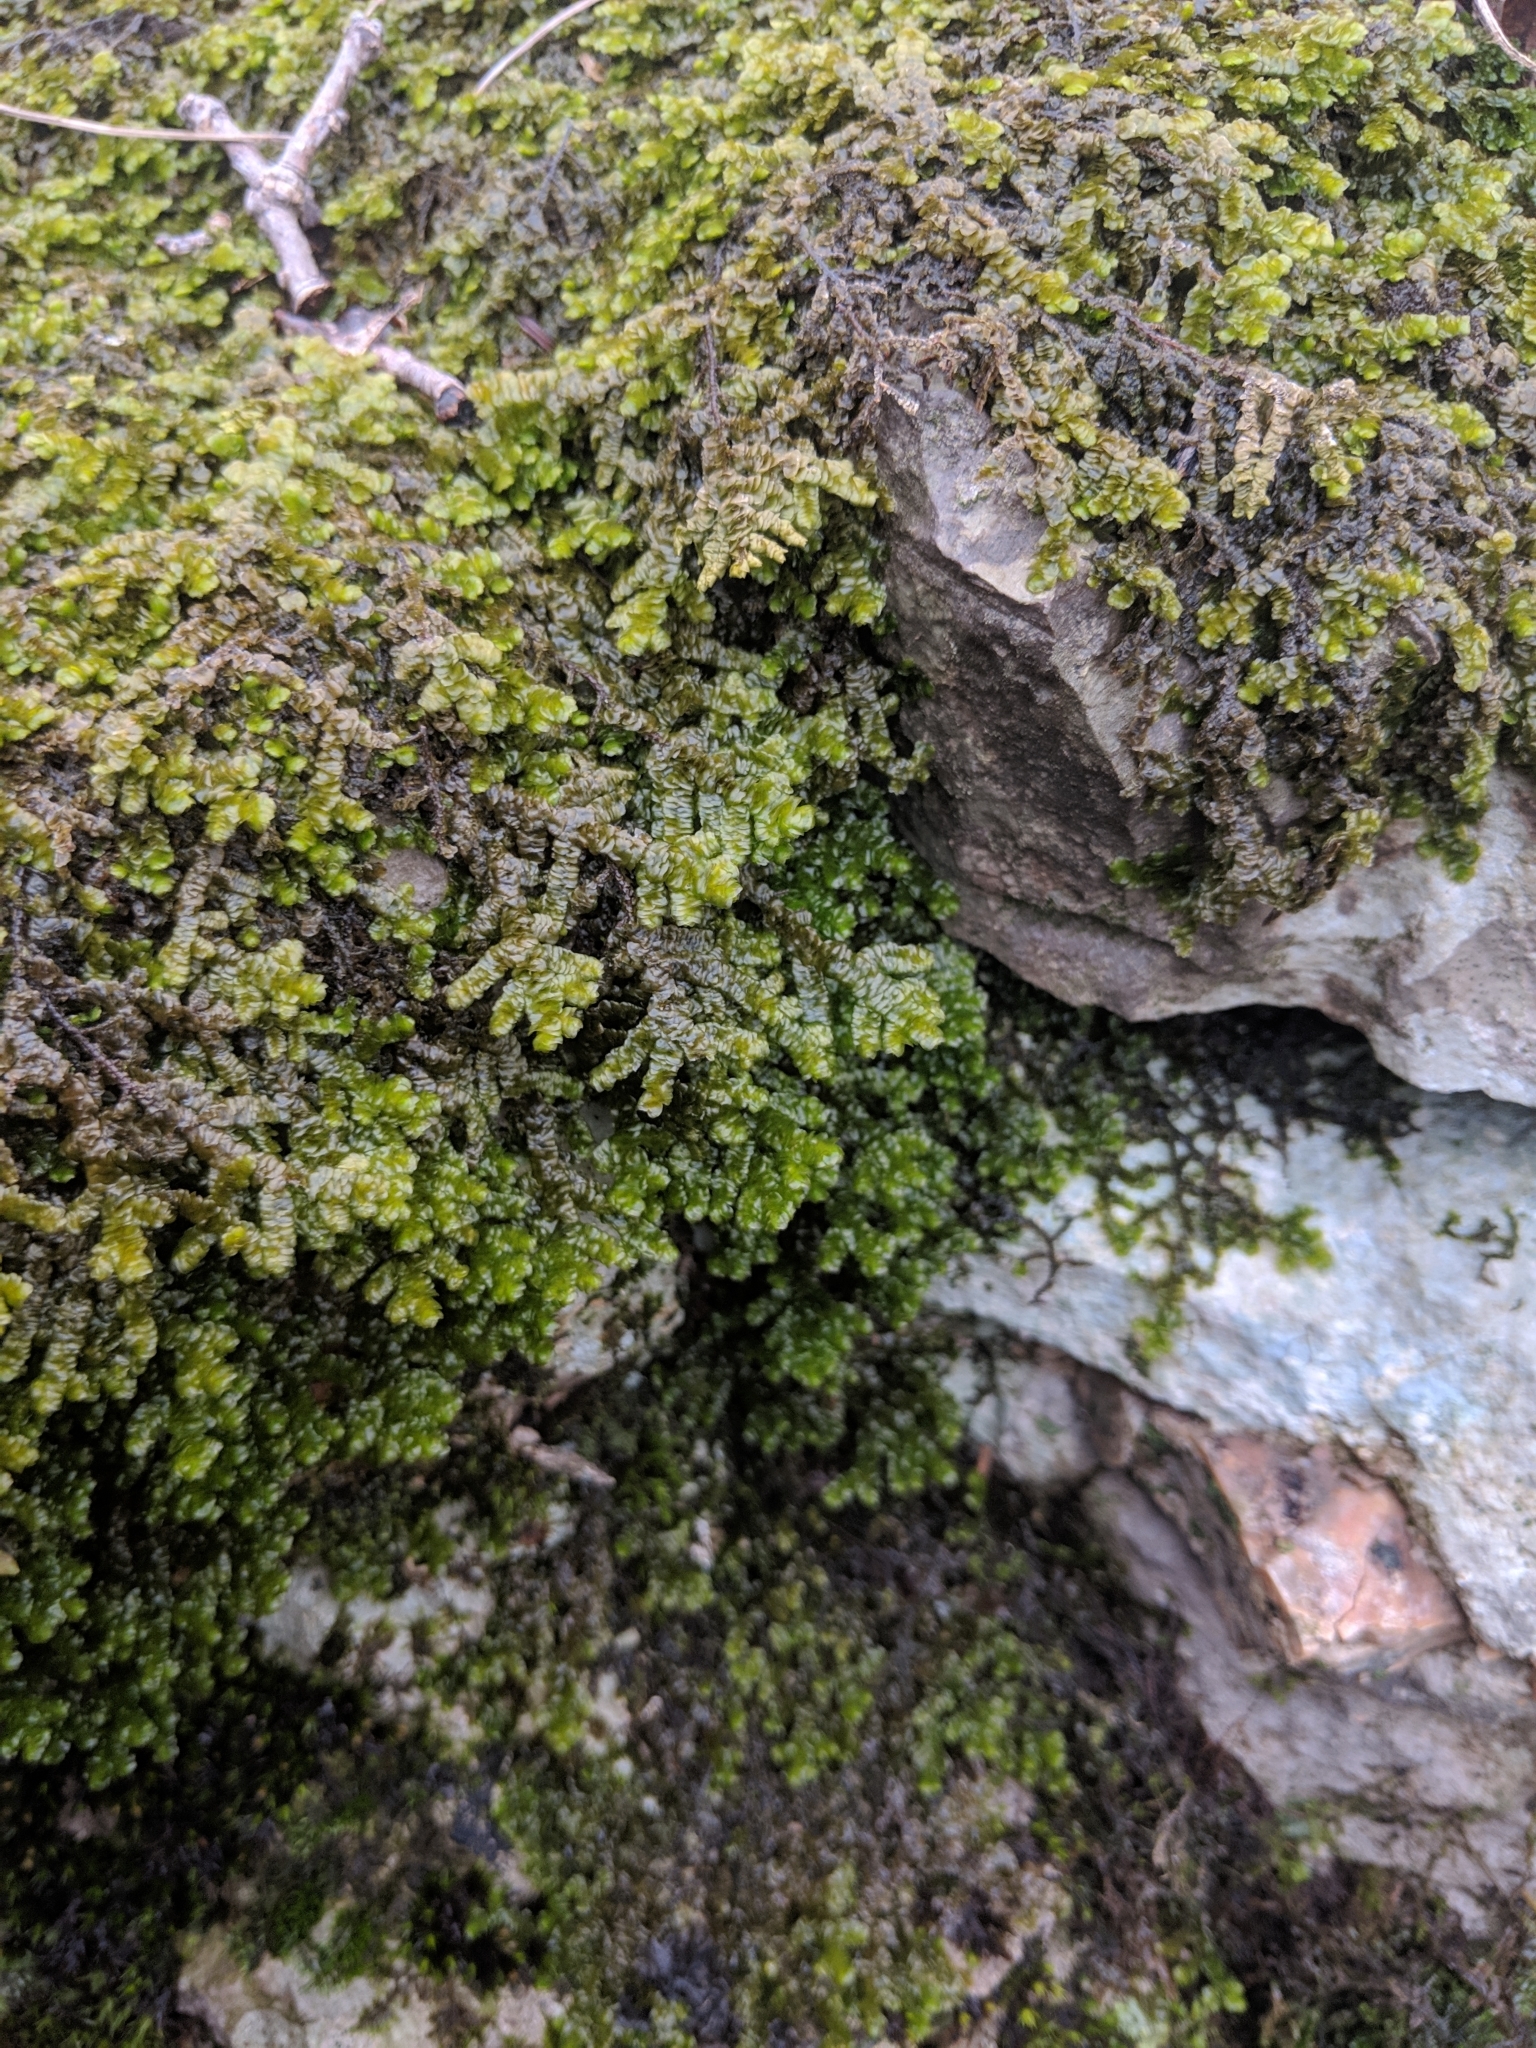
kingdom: Plantae
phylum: Marchantiophyta
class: Jungermanniopsida
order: Porellales
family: Porellaceae
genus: Porella
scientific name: Porella platyphylla
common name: Wall scalewort
